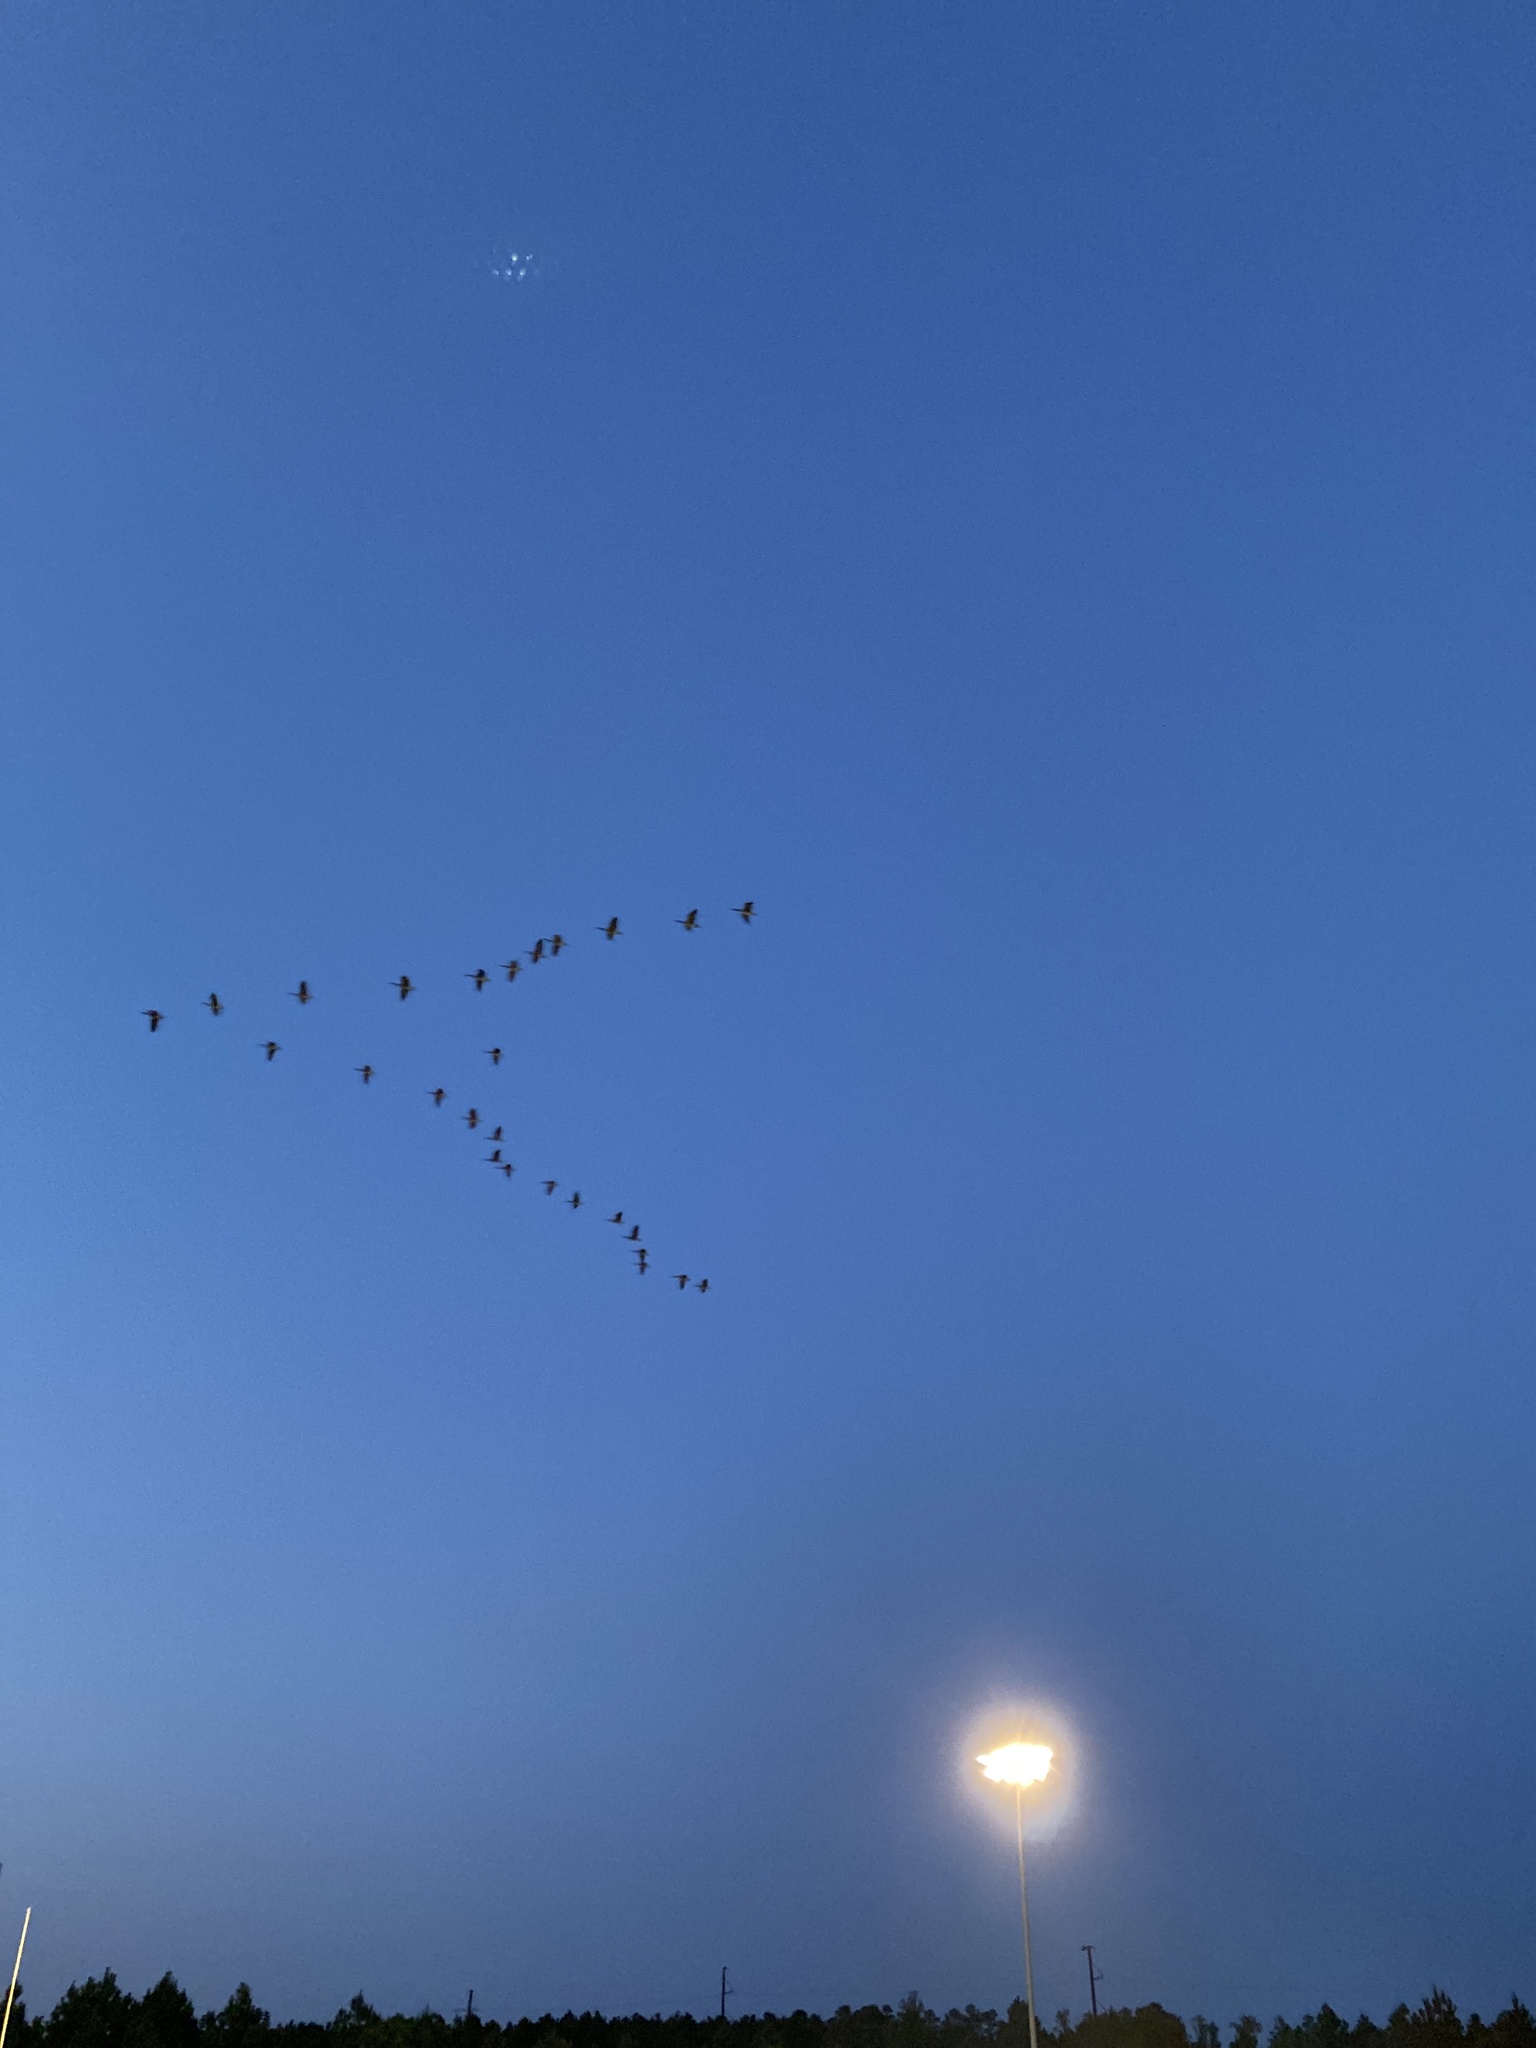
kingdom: Animalia
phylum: Chordata
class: Aves
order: Anseriformes
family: Anatidae
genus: Branta
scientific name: Branta canadensis
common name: Canada goose
